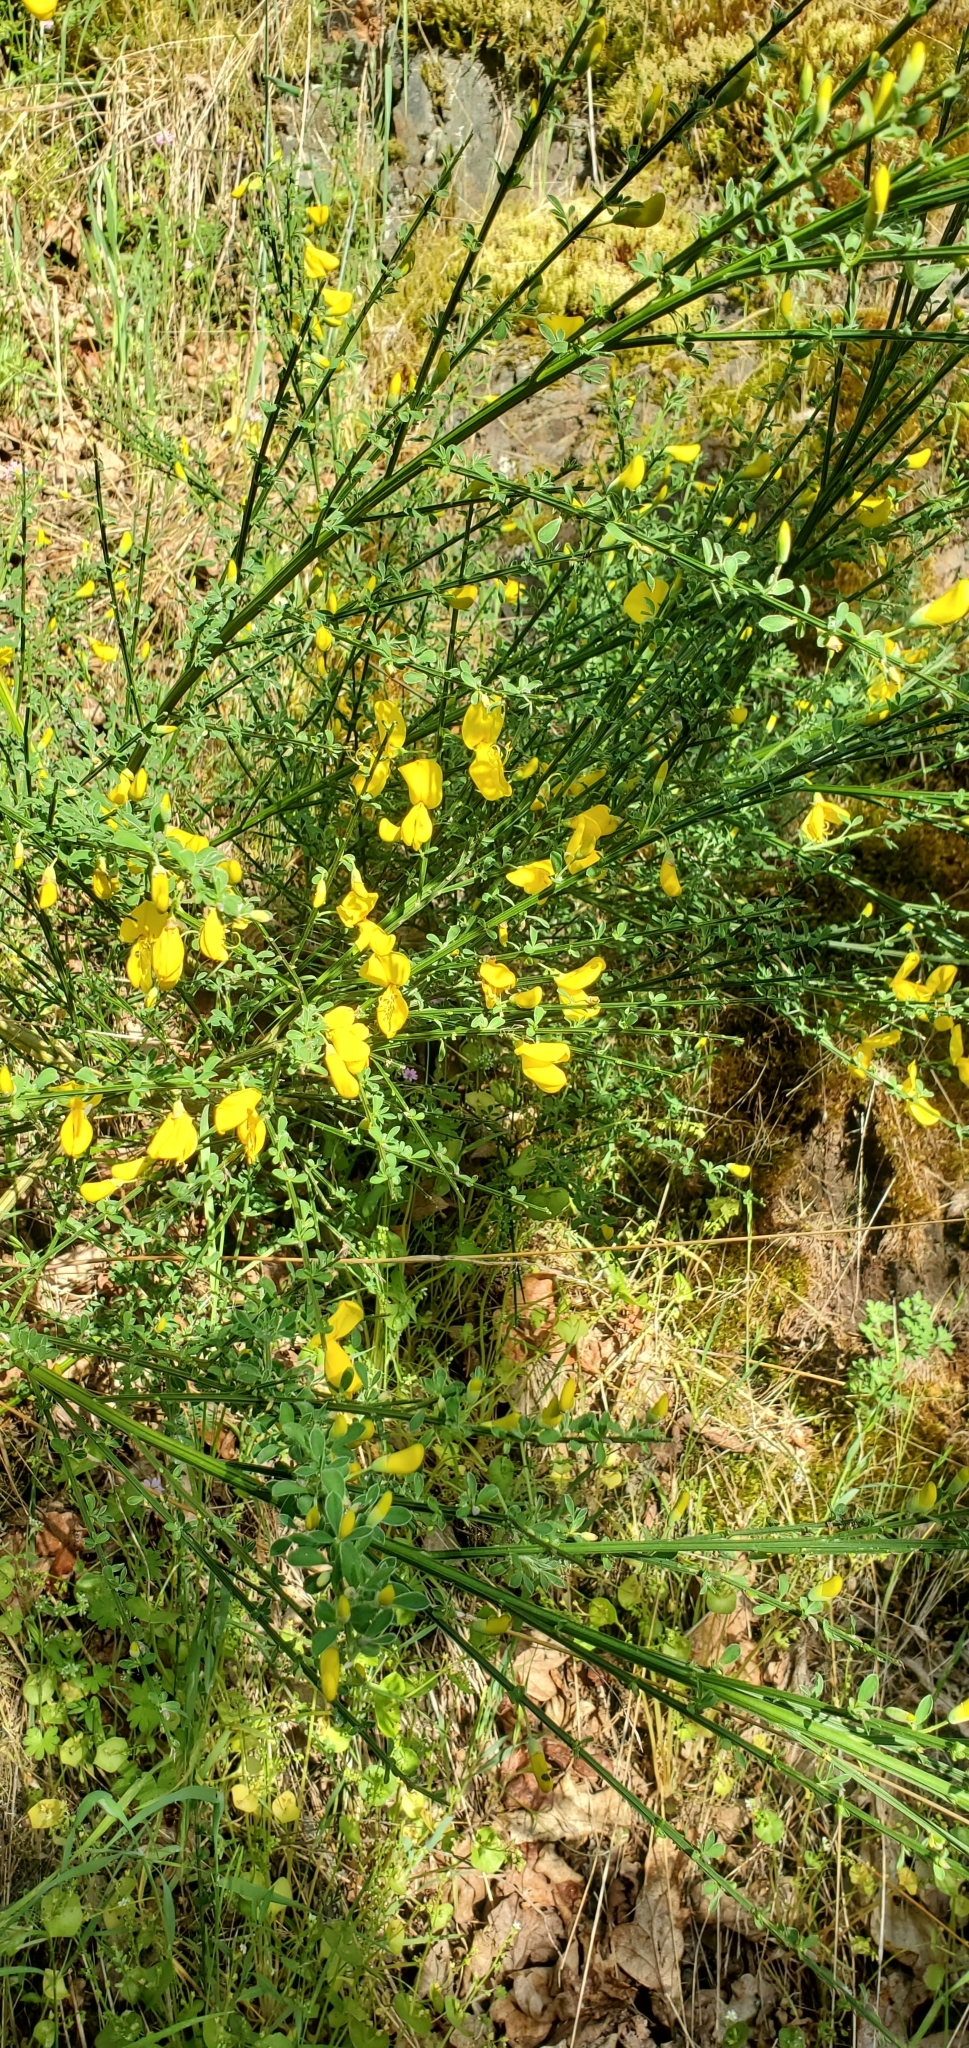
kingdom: Plantae
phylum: Tracheophyta
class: Magnoliopsida
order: Fabales
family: Fabaceae
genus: Cytisus
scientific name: Cytisus scoparius
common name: Scotch broom
